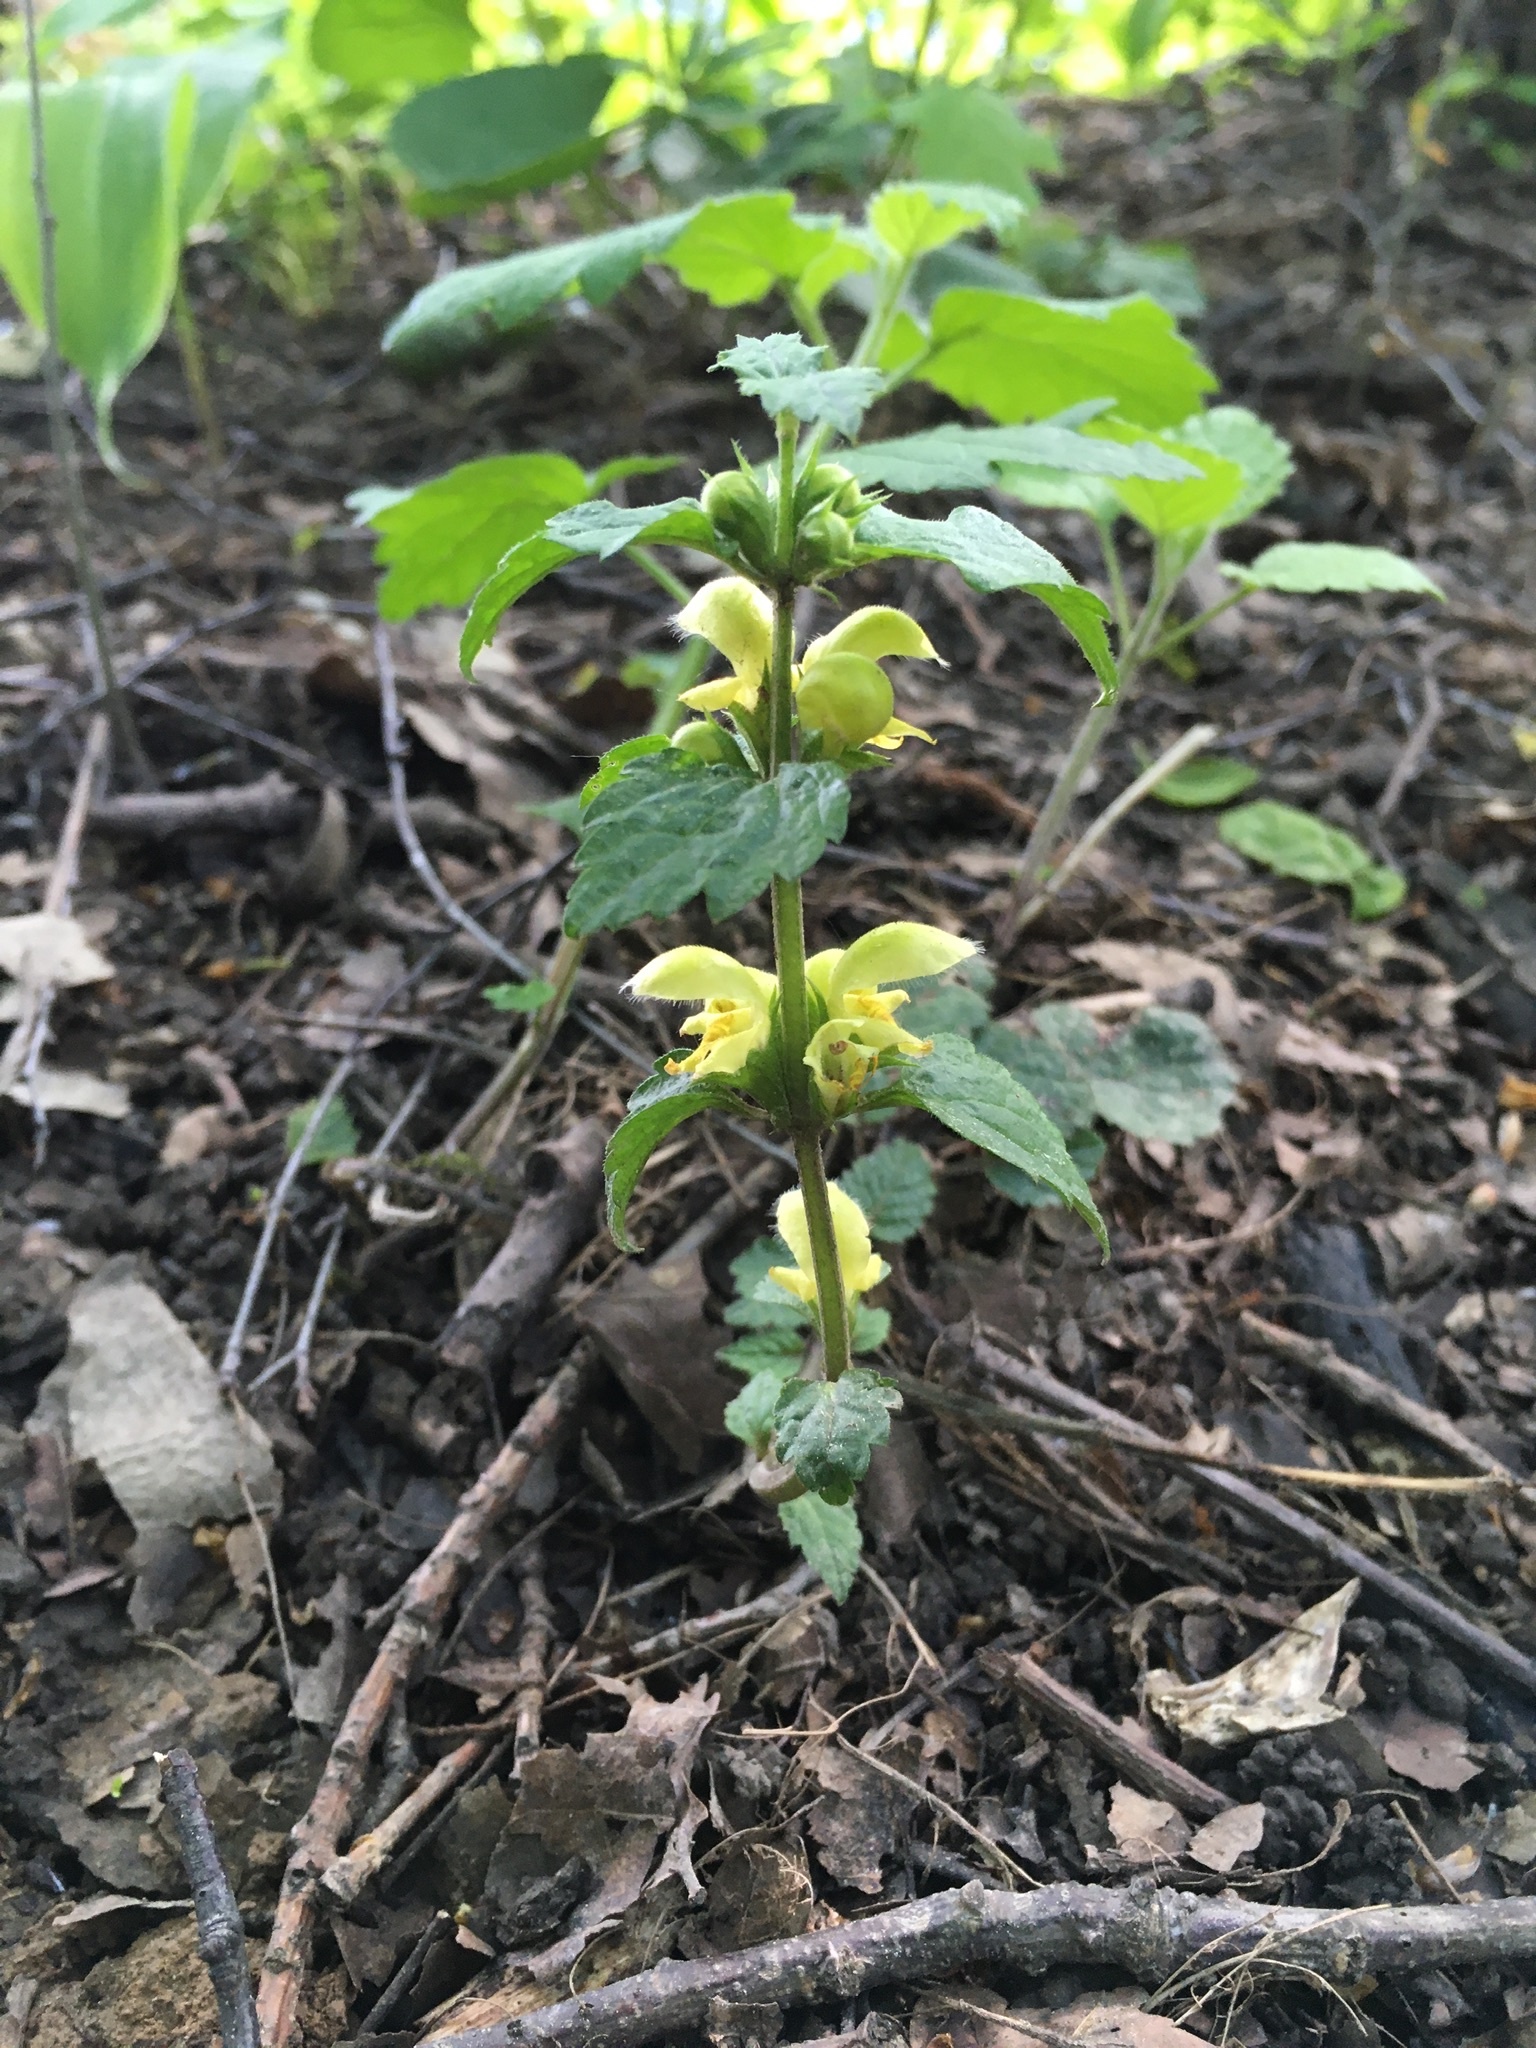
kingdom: Plantae
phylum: Tracheophyta
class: Magnoliopsida
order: Lamiales
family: Lamiaceae
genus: Lamium
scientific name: Lamium galeobdolon
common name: Yellow archangel
